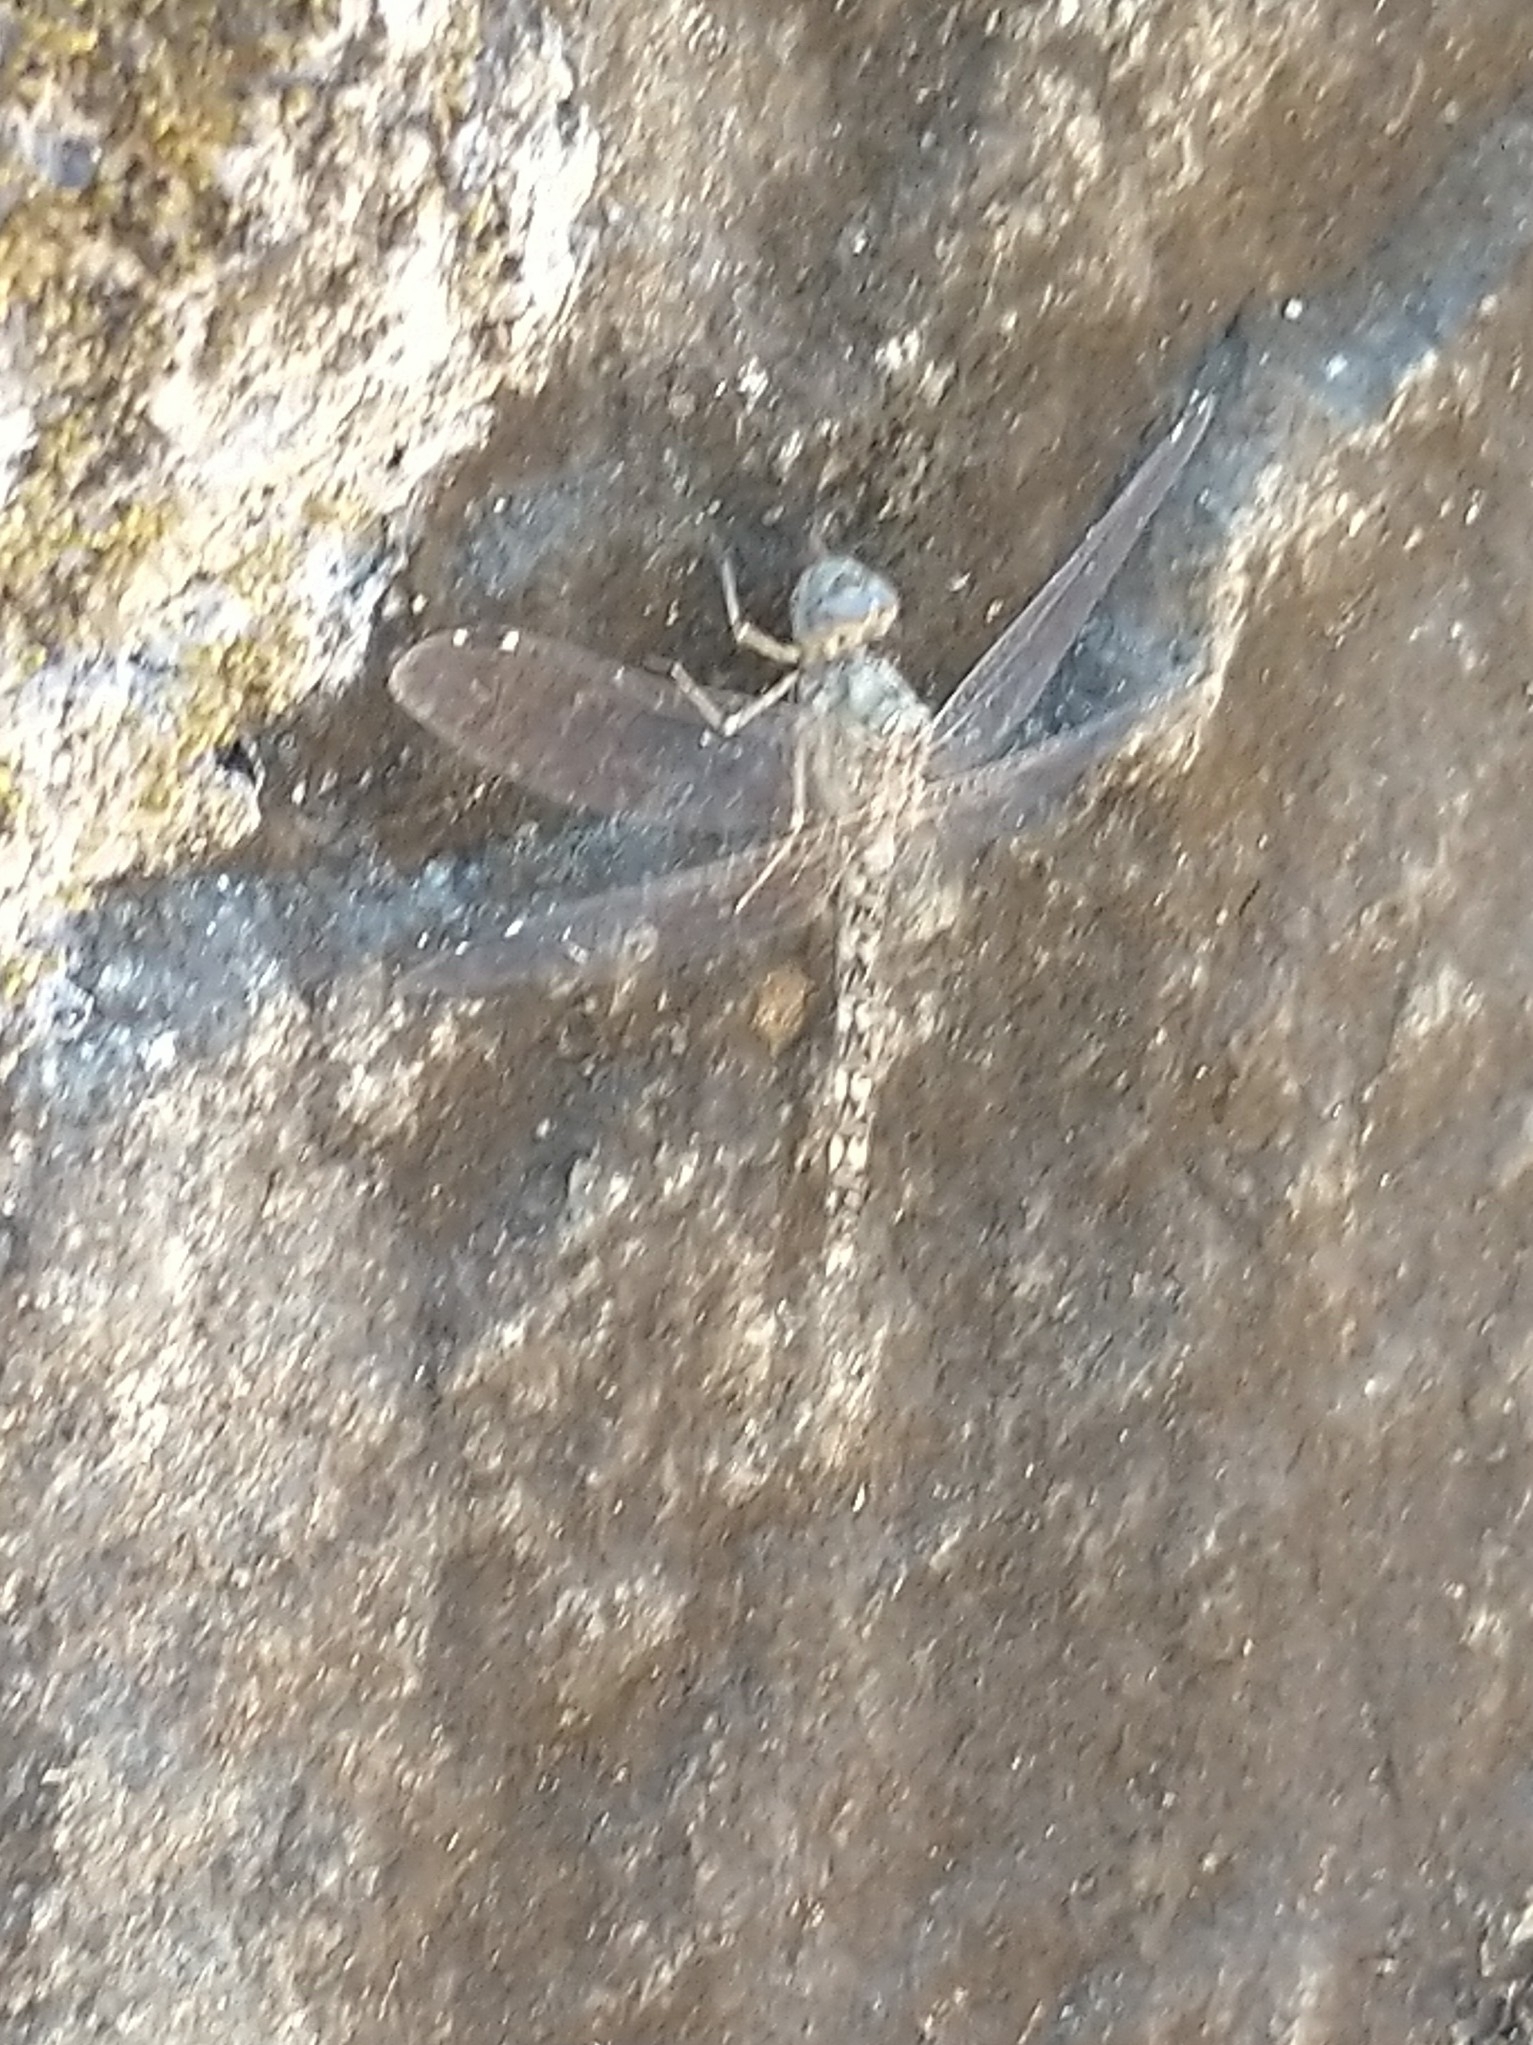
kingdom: Animalia
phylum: Arthropoda
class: Insecta
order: Odonata
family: Libellulidae
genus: Bradinopyga
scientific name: Bradinopyga geminata
